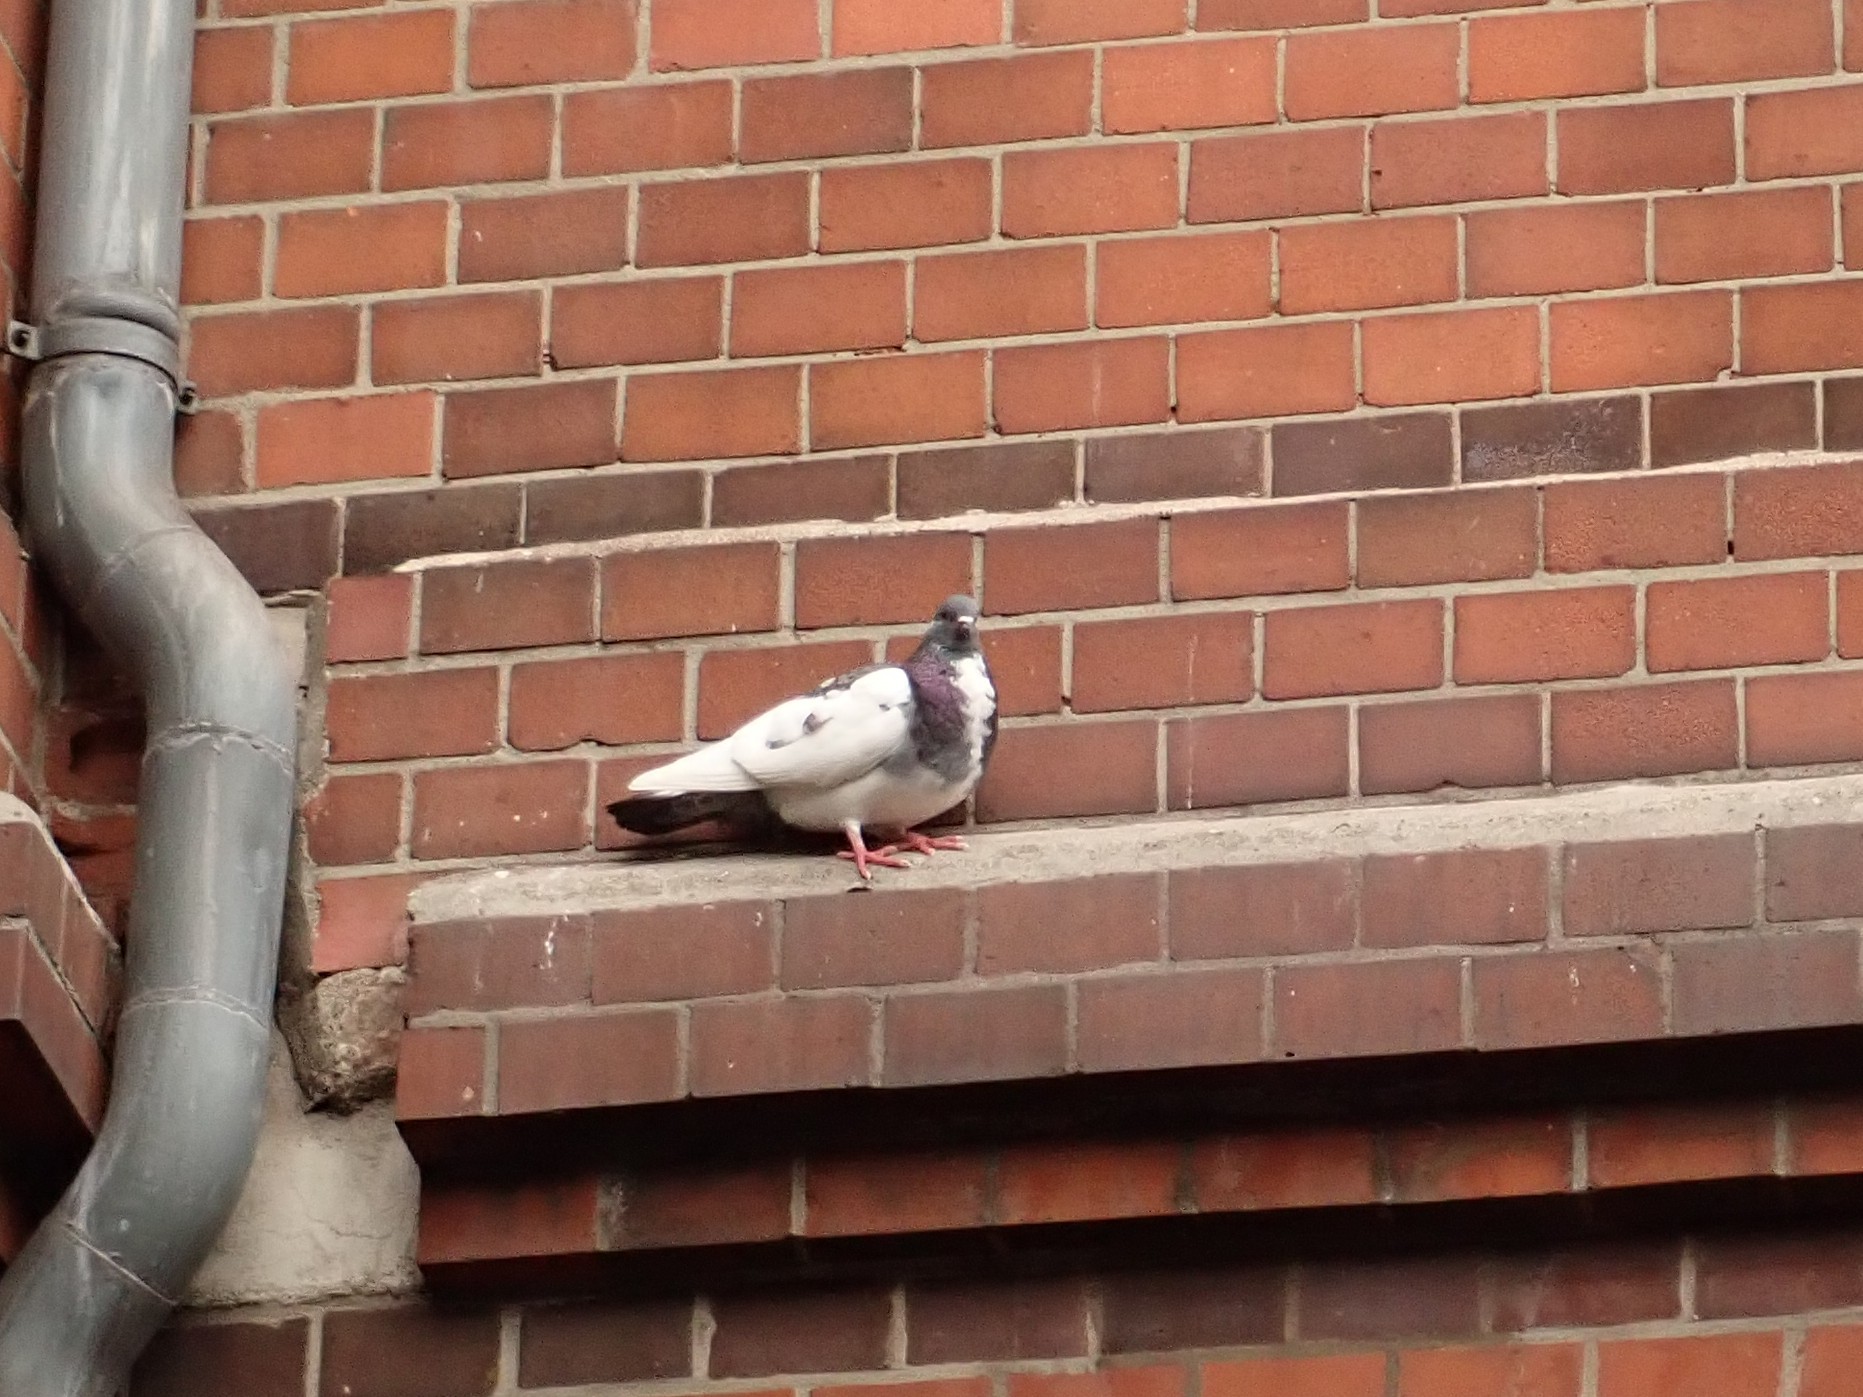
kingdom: Animalia
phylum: Chordata
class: Aves
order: Columbiformes
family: Columbidae
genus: Columba
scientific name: Columba livia
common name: Rock pigeon
